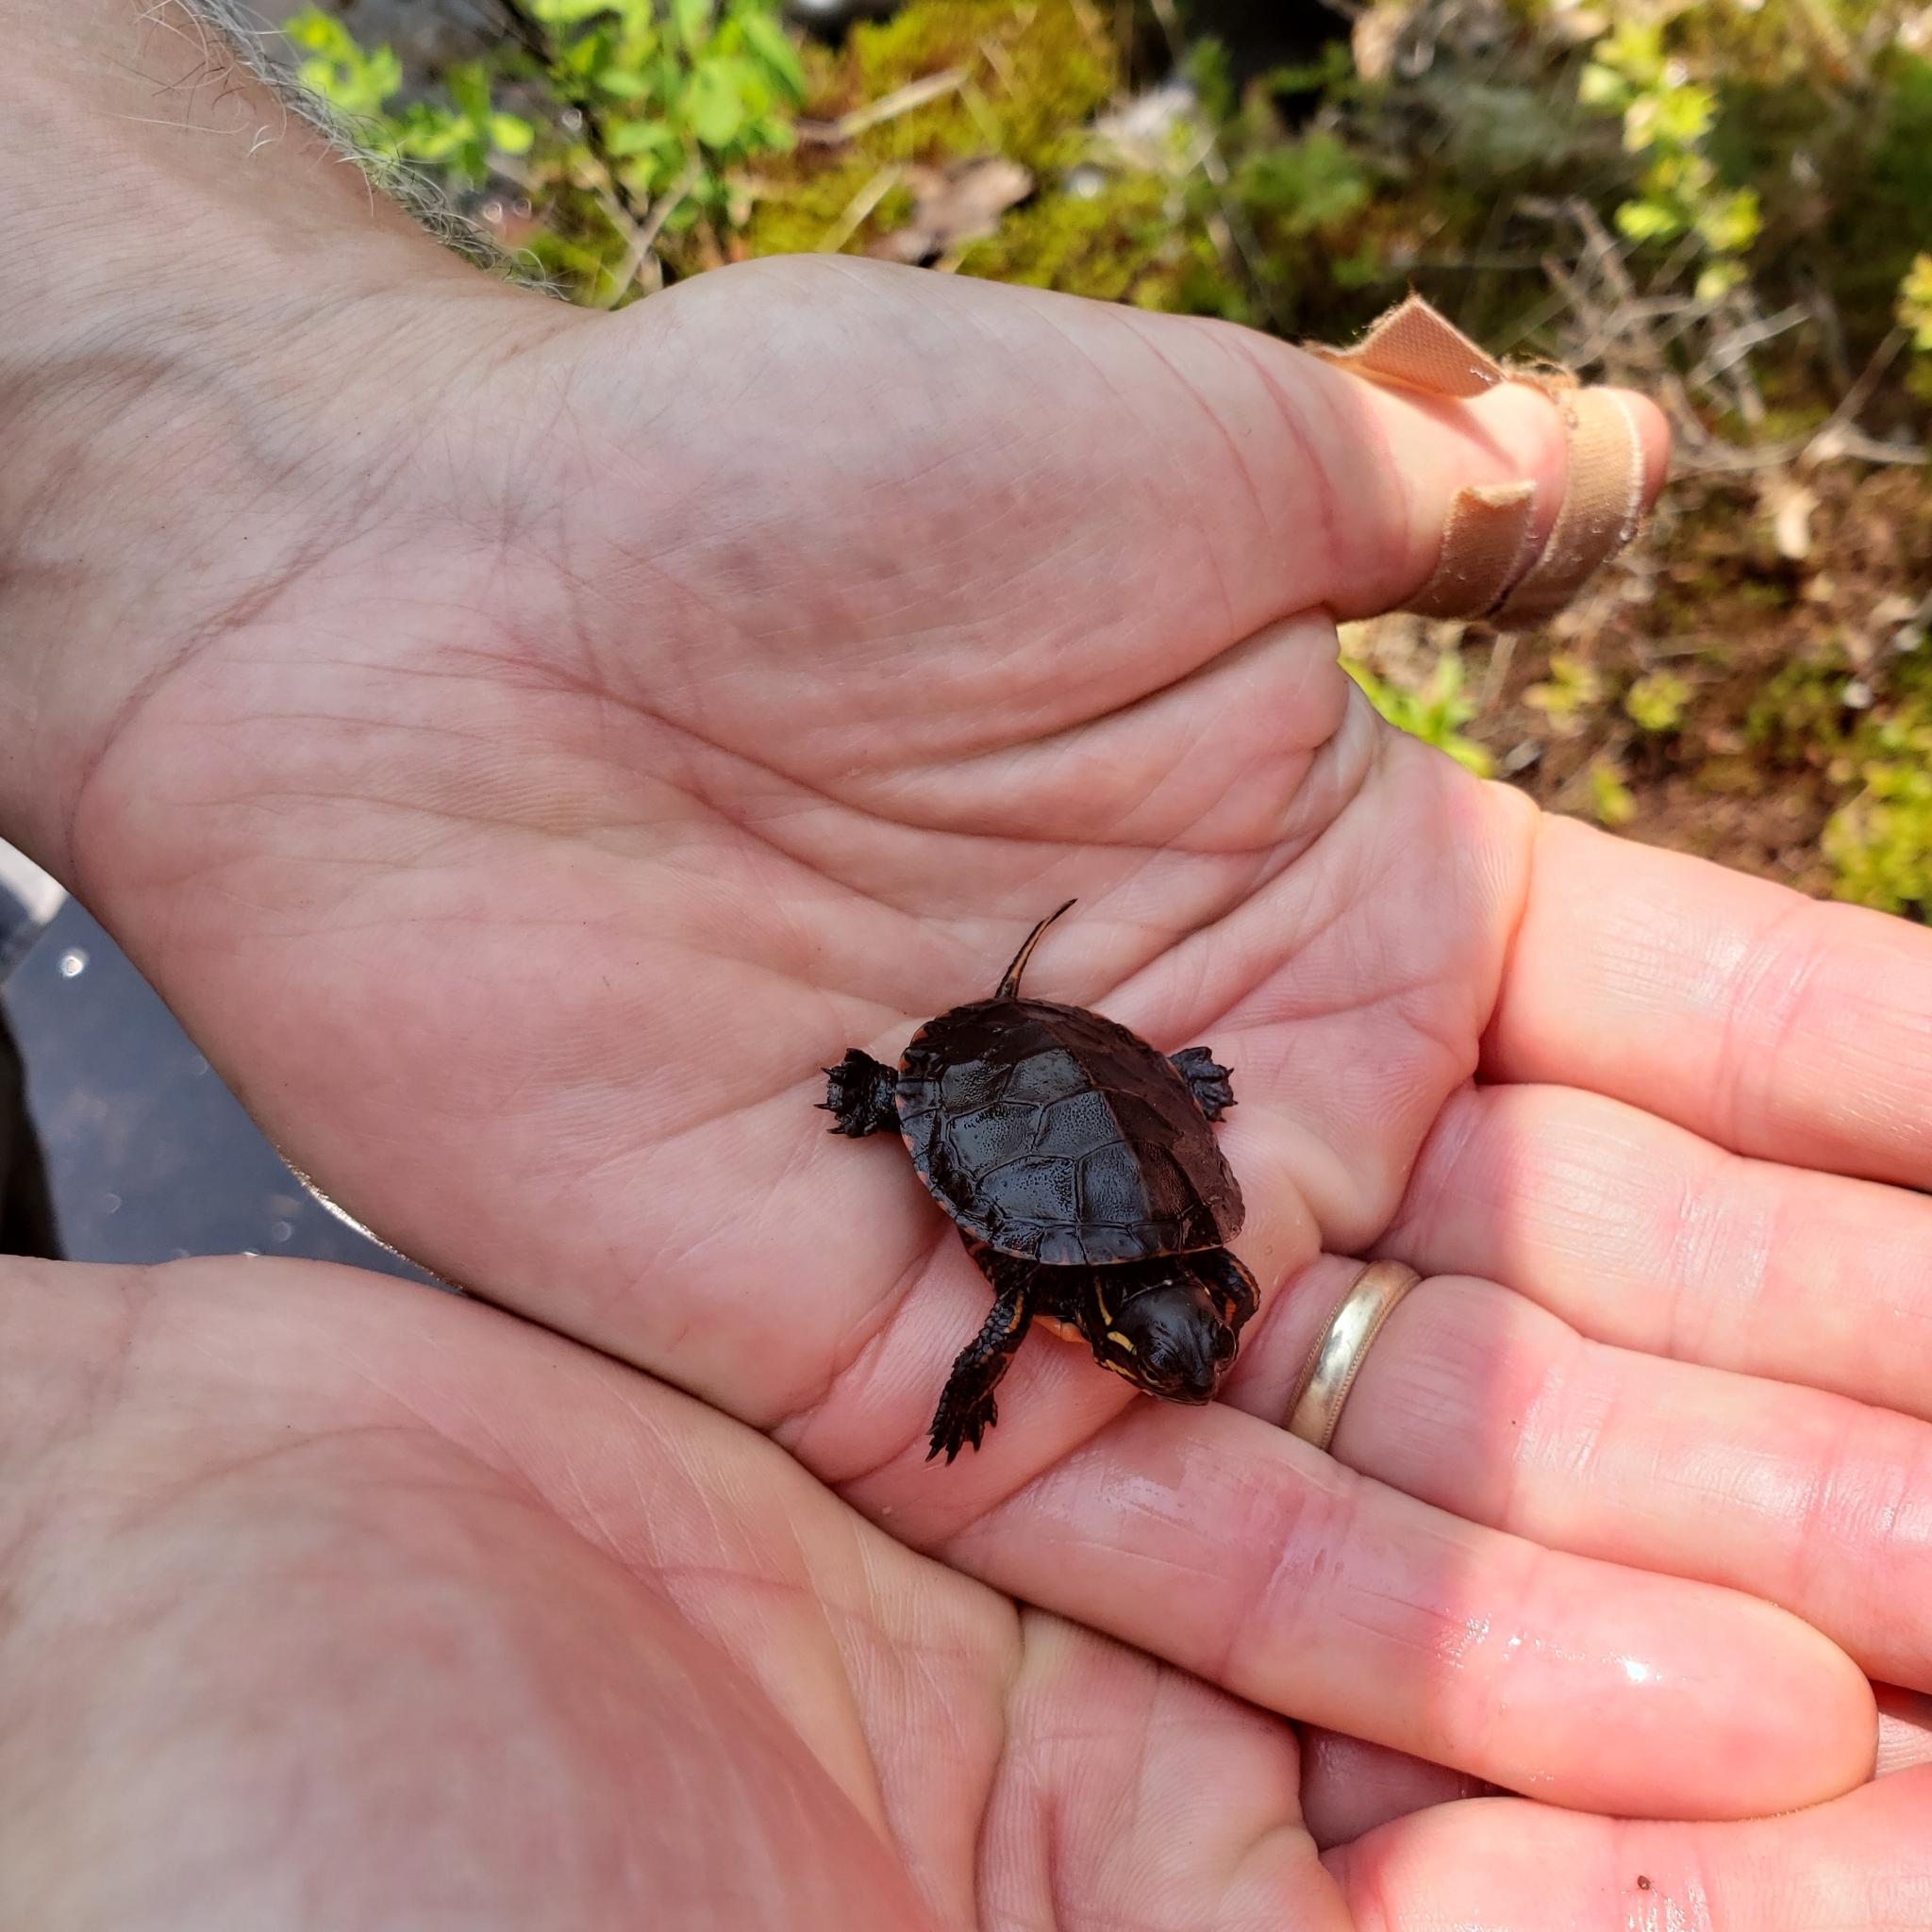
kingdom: Animalia
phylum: Chordata
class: Testudines
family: Emydidae
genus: Chrysemys
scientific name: Chrysemys picta
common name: Painted turtle
